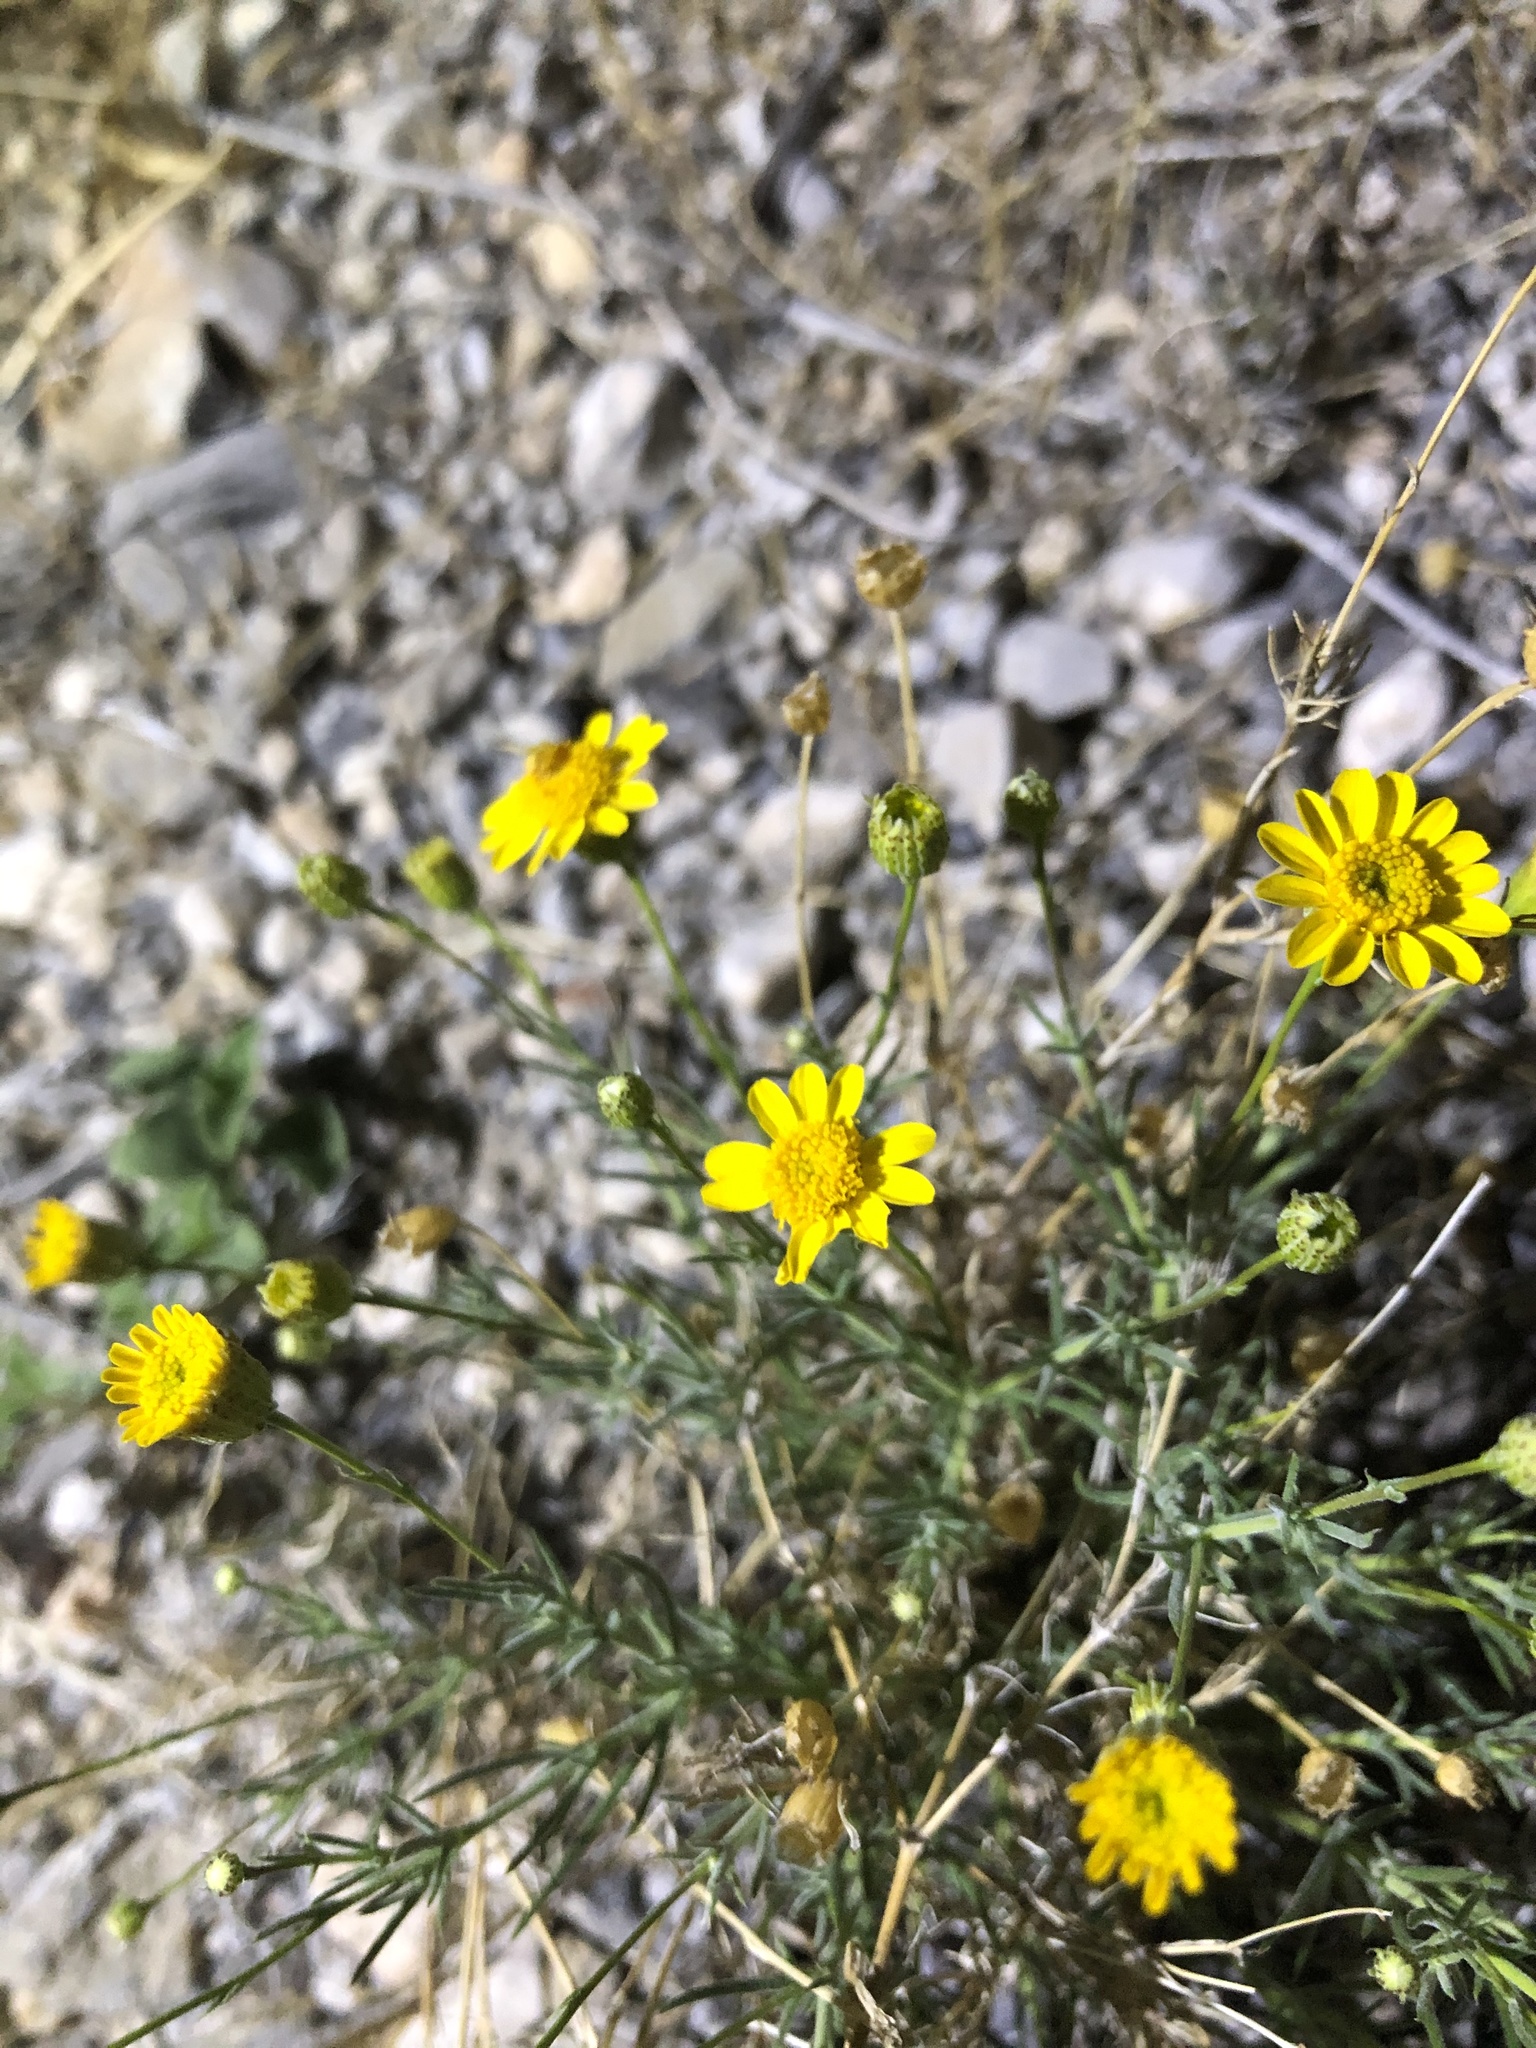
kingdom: Plantae
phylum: Tracheophyta
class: Magnoliopsida
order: Asterales
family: Asteraceae
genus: Thymophylla
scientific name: Thymophylla pentachaeta
